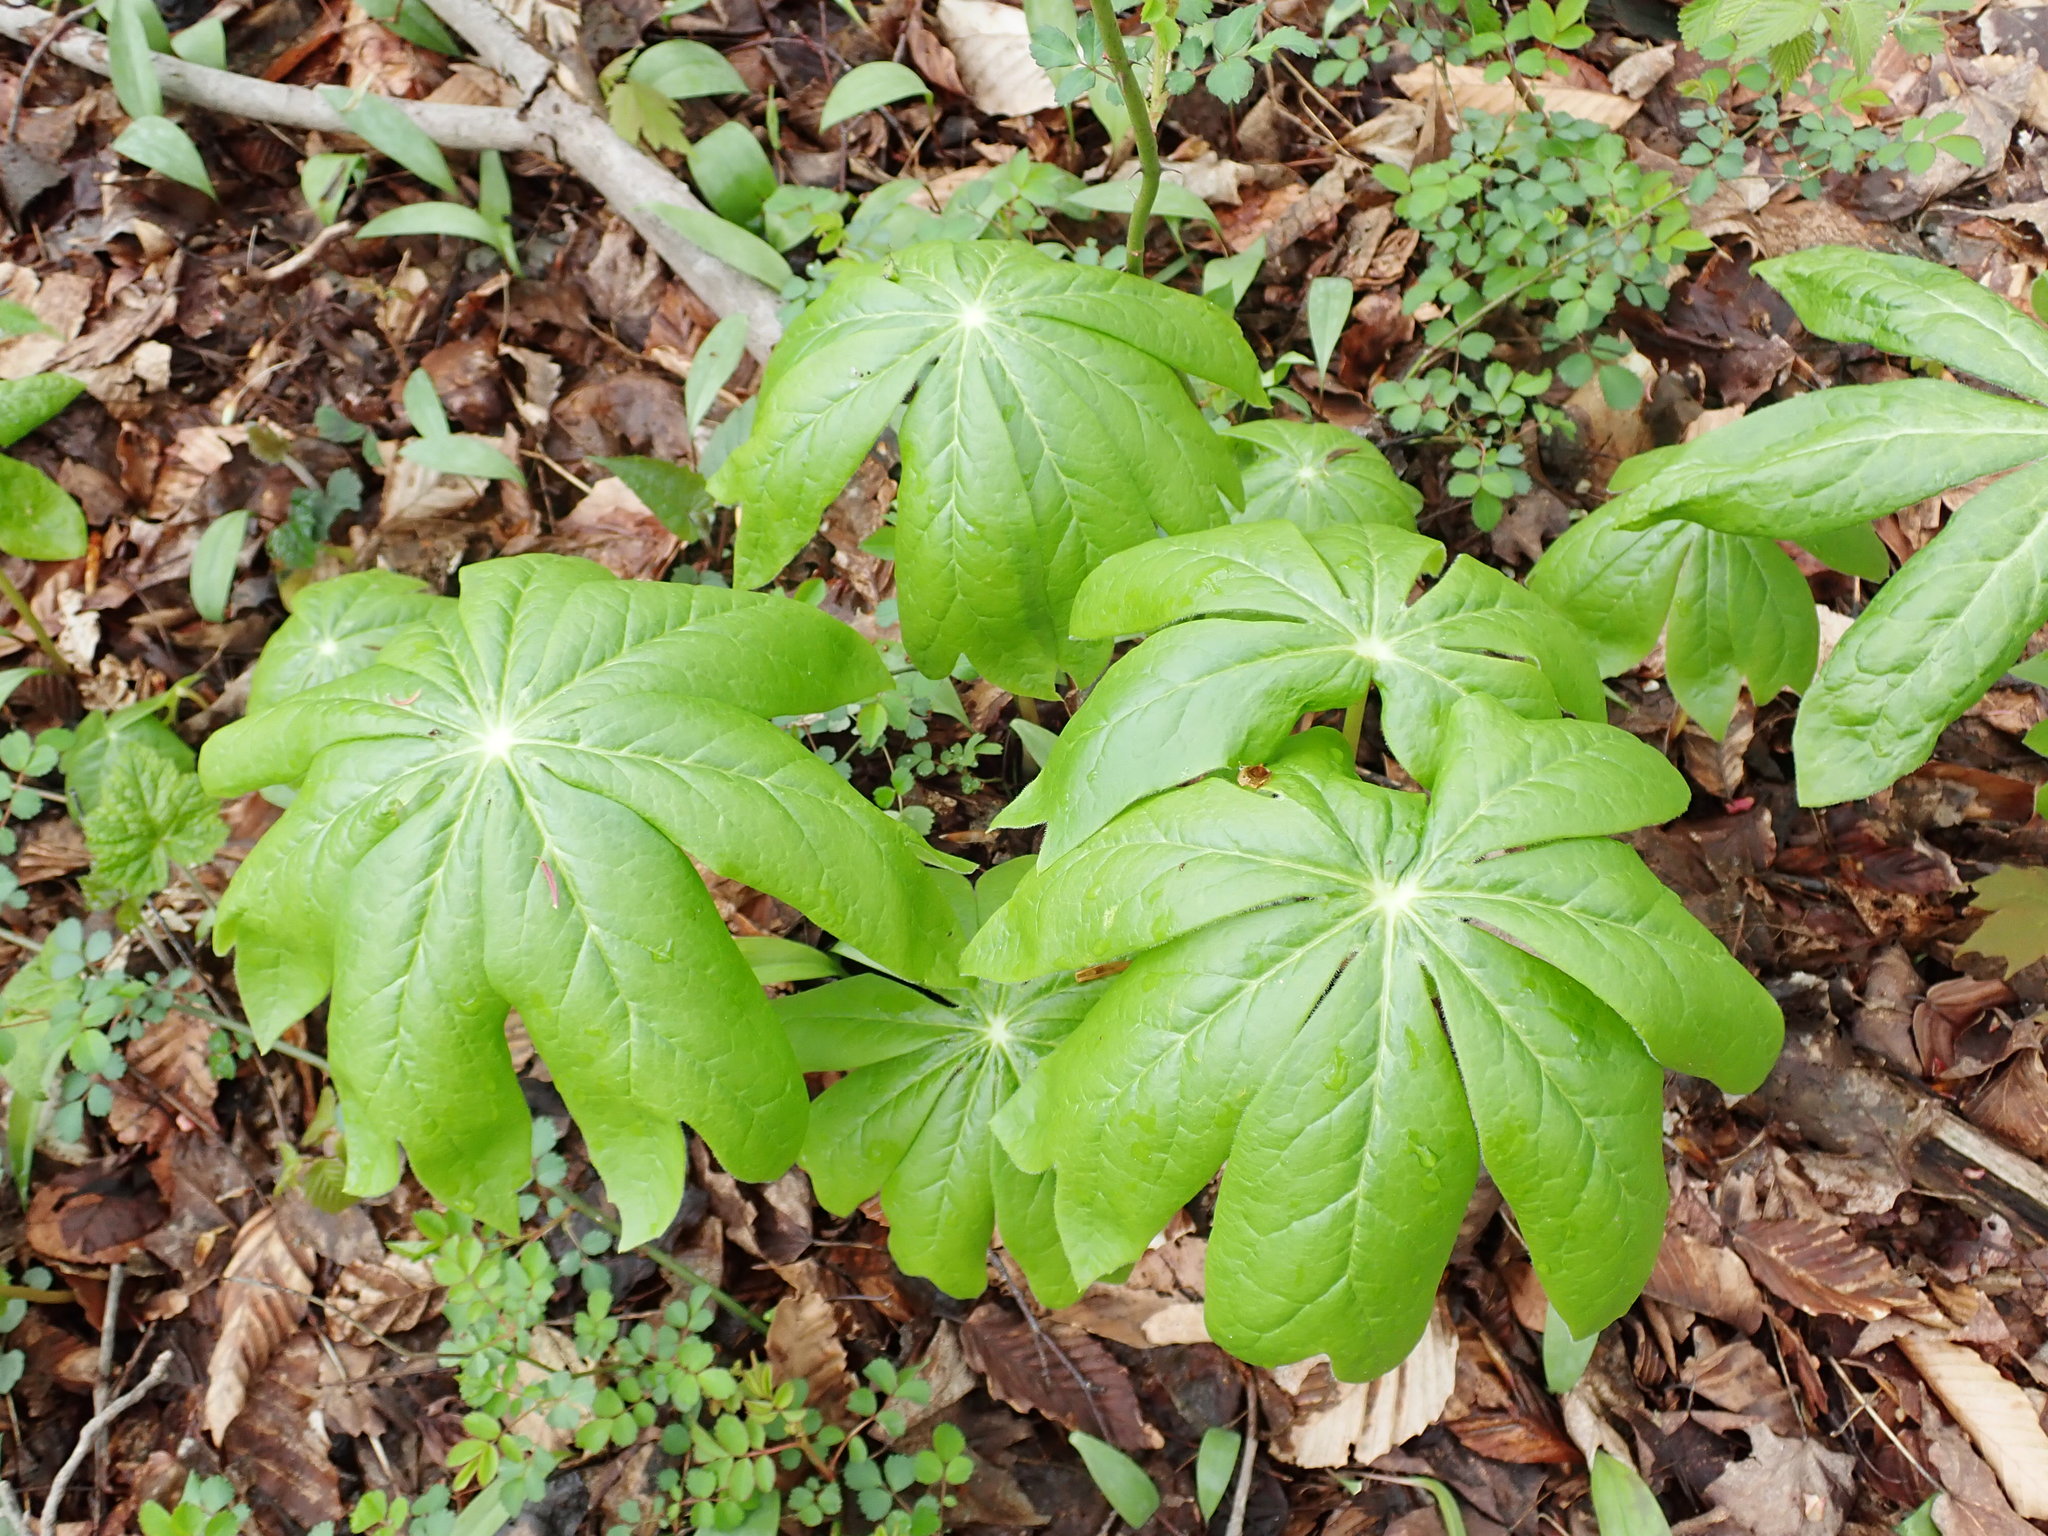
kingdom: Plantae
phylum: Tracheophyta
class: Magnoliopsida
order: Ranunculales
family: Berberidaceae
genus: Podophyllum
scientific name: Podophyllum peltatum
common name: Wild mandrake
